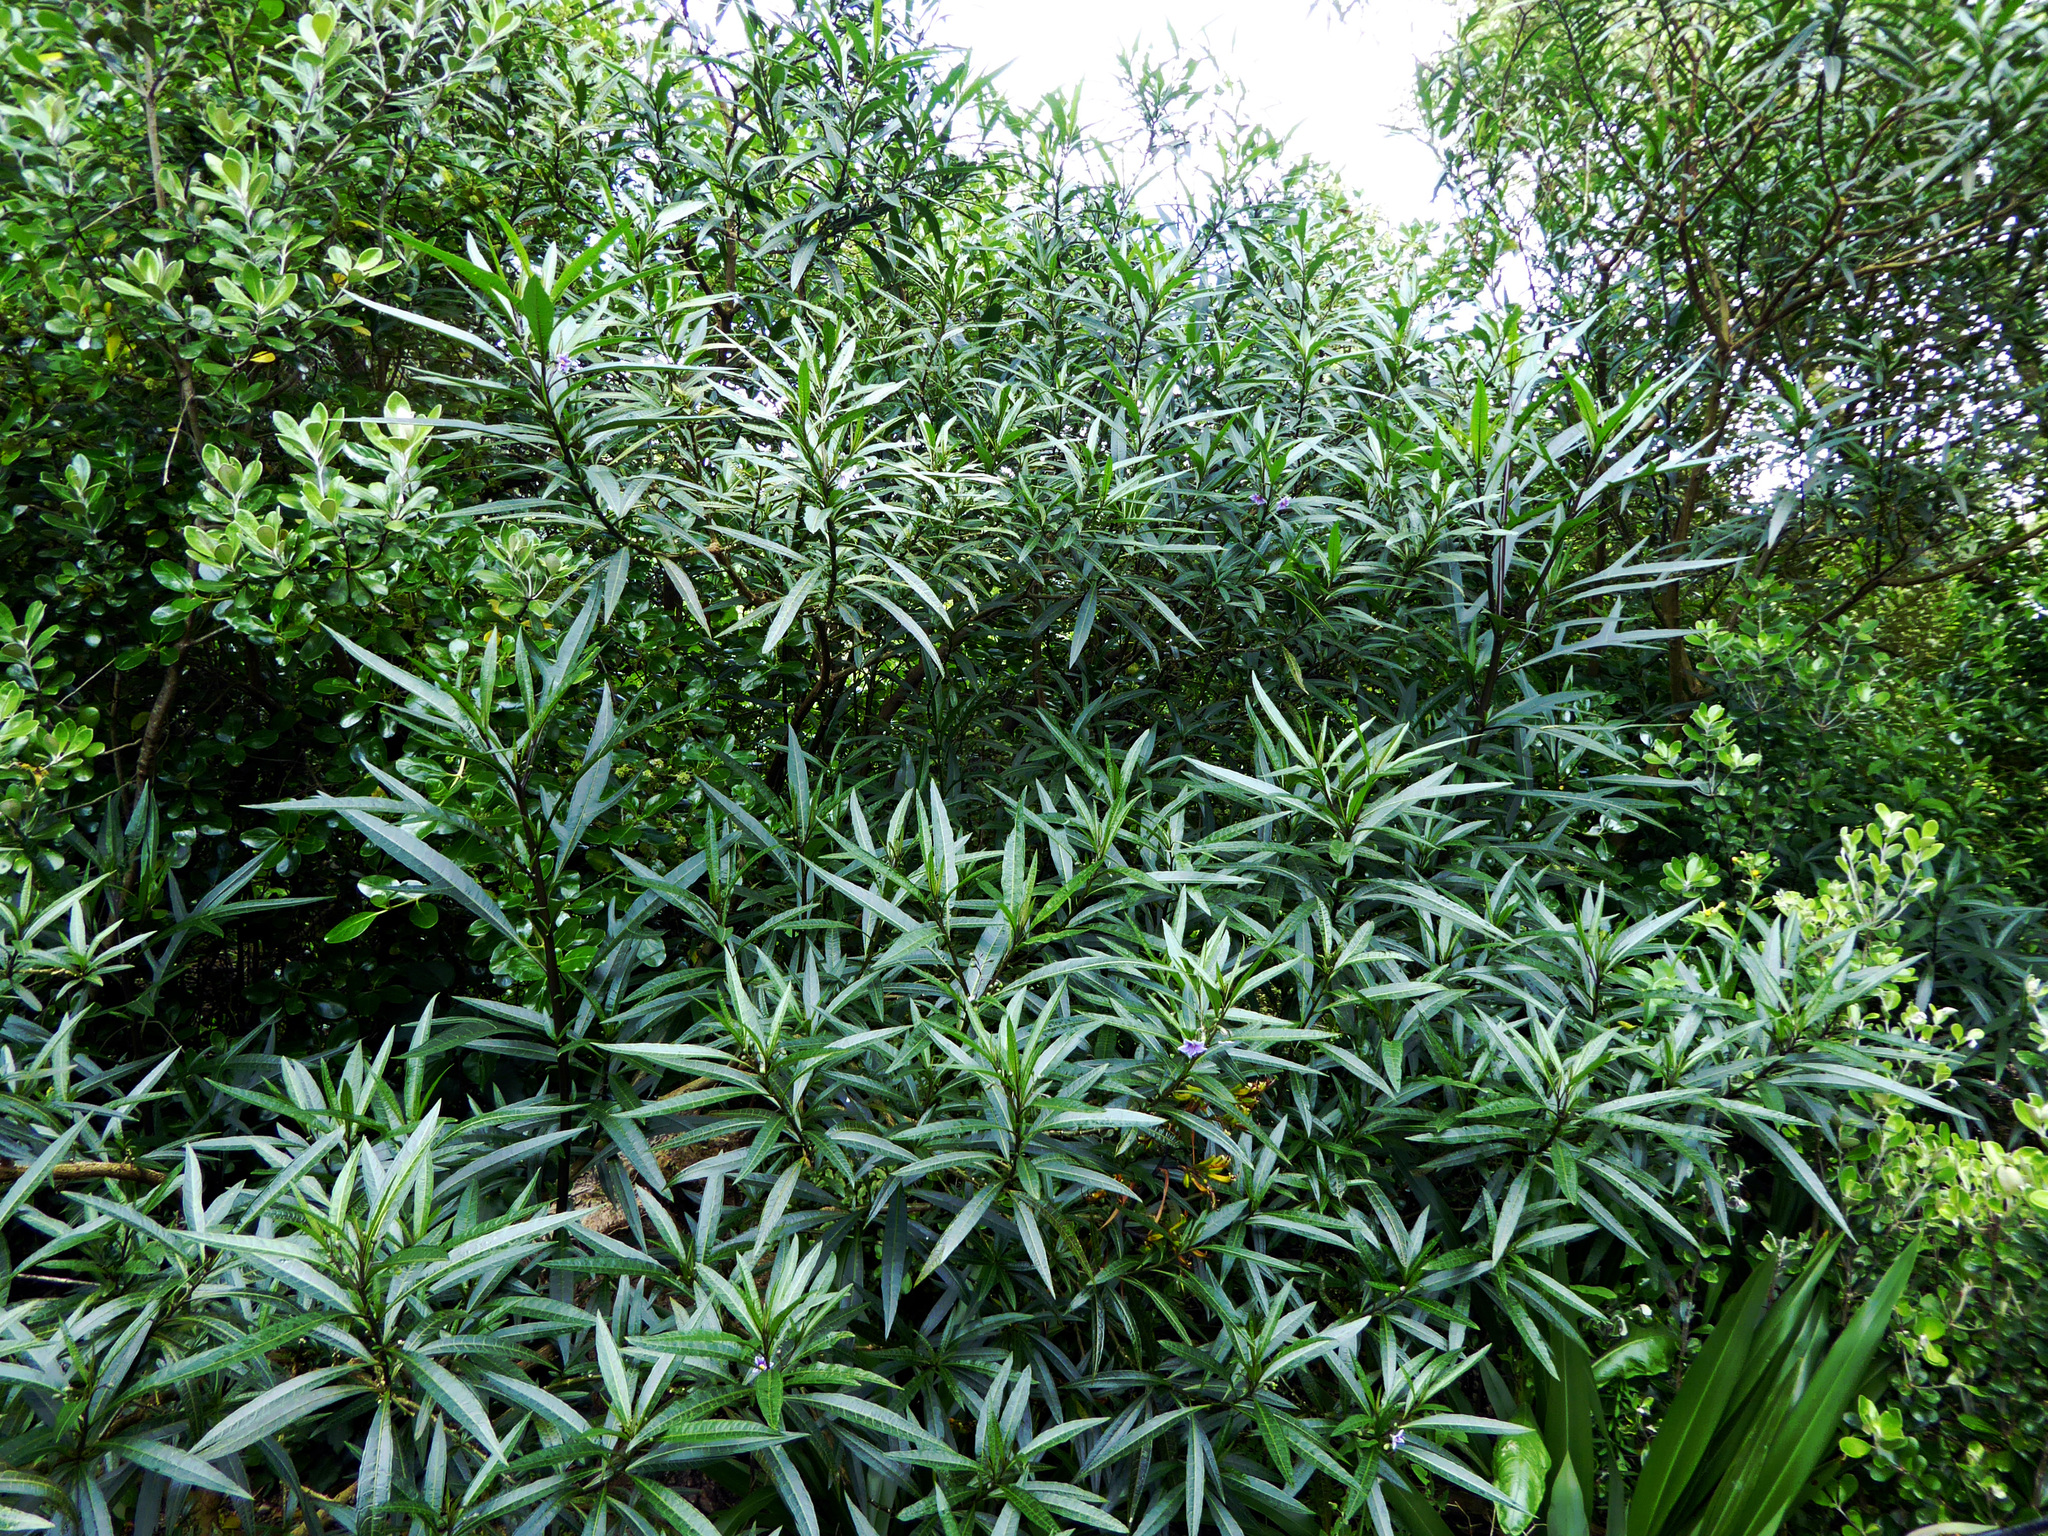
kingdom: Plantae
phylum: Tracheophyta
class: Magnoliopsida
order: Solanales
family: Solanaceae
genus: Solanum
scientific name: Solanum aviculare
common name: New zealand nightshade
